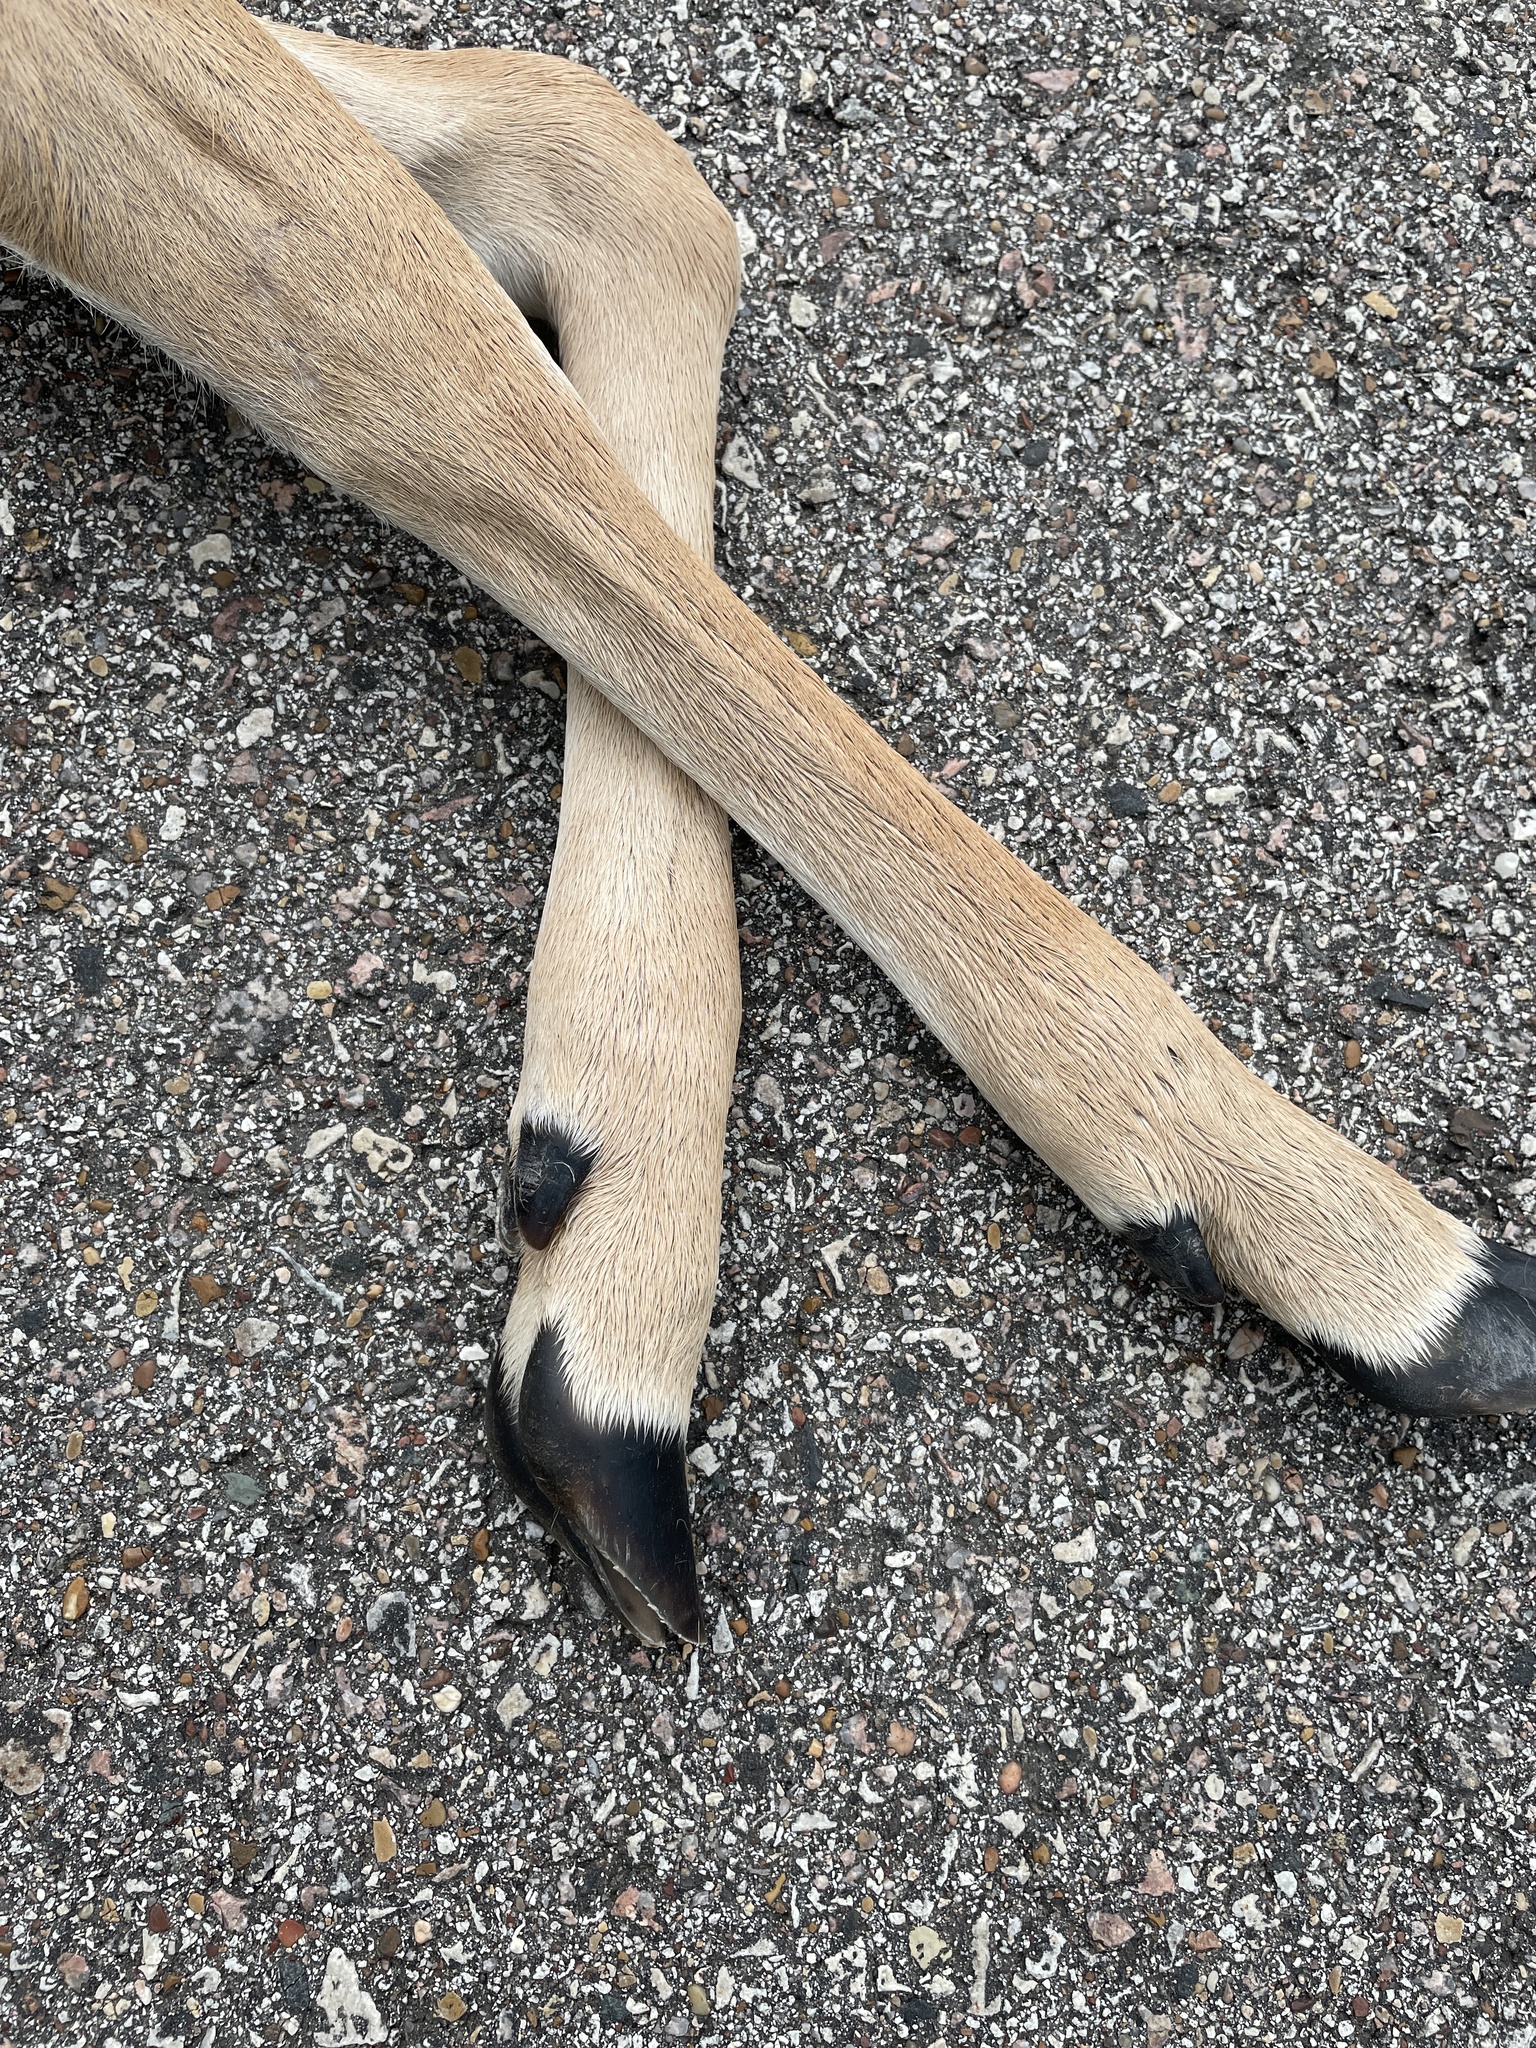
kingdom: Animalia
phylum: Chordata
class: Mammalia
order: Artiodactyla
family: Cervidae
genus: Odocoileus
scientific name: Odocoileus virginianus
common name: White-tailed deer
